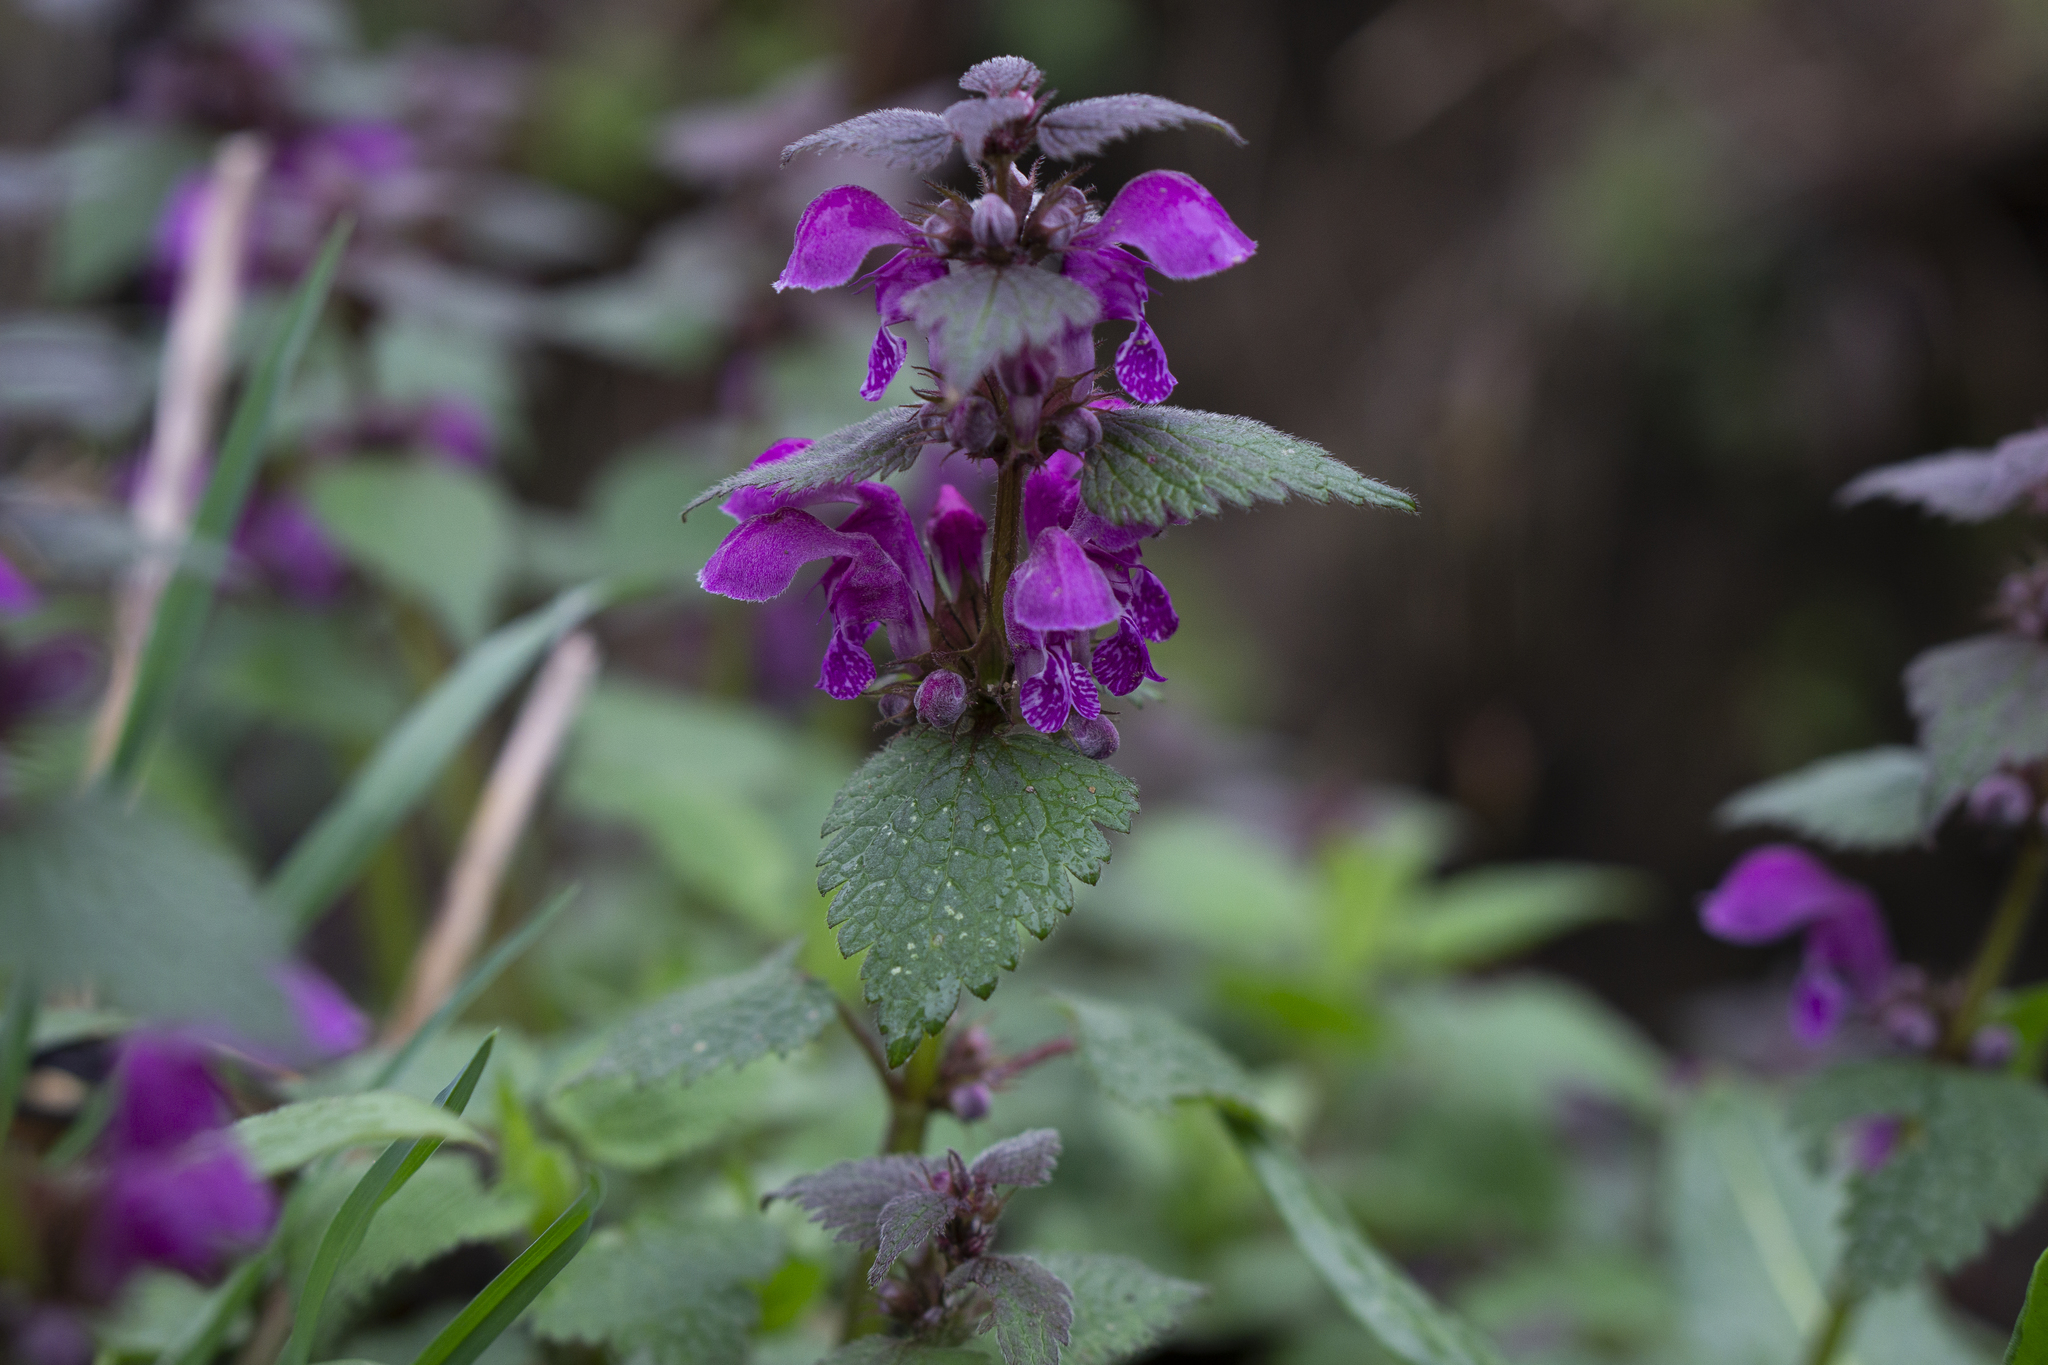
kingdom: Plantae
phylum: Tracheophyta
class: Magnoliopsida
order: Lamiales
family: Lamiaceae
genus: Lamium
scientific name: Lamium maculatum
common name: Spotted dead-nettle
